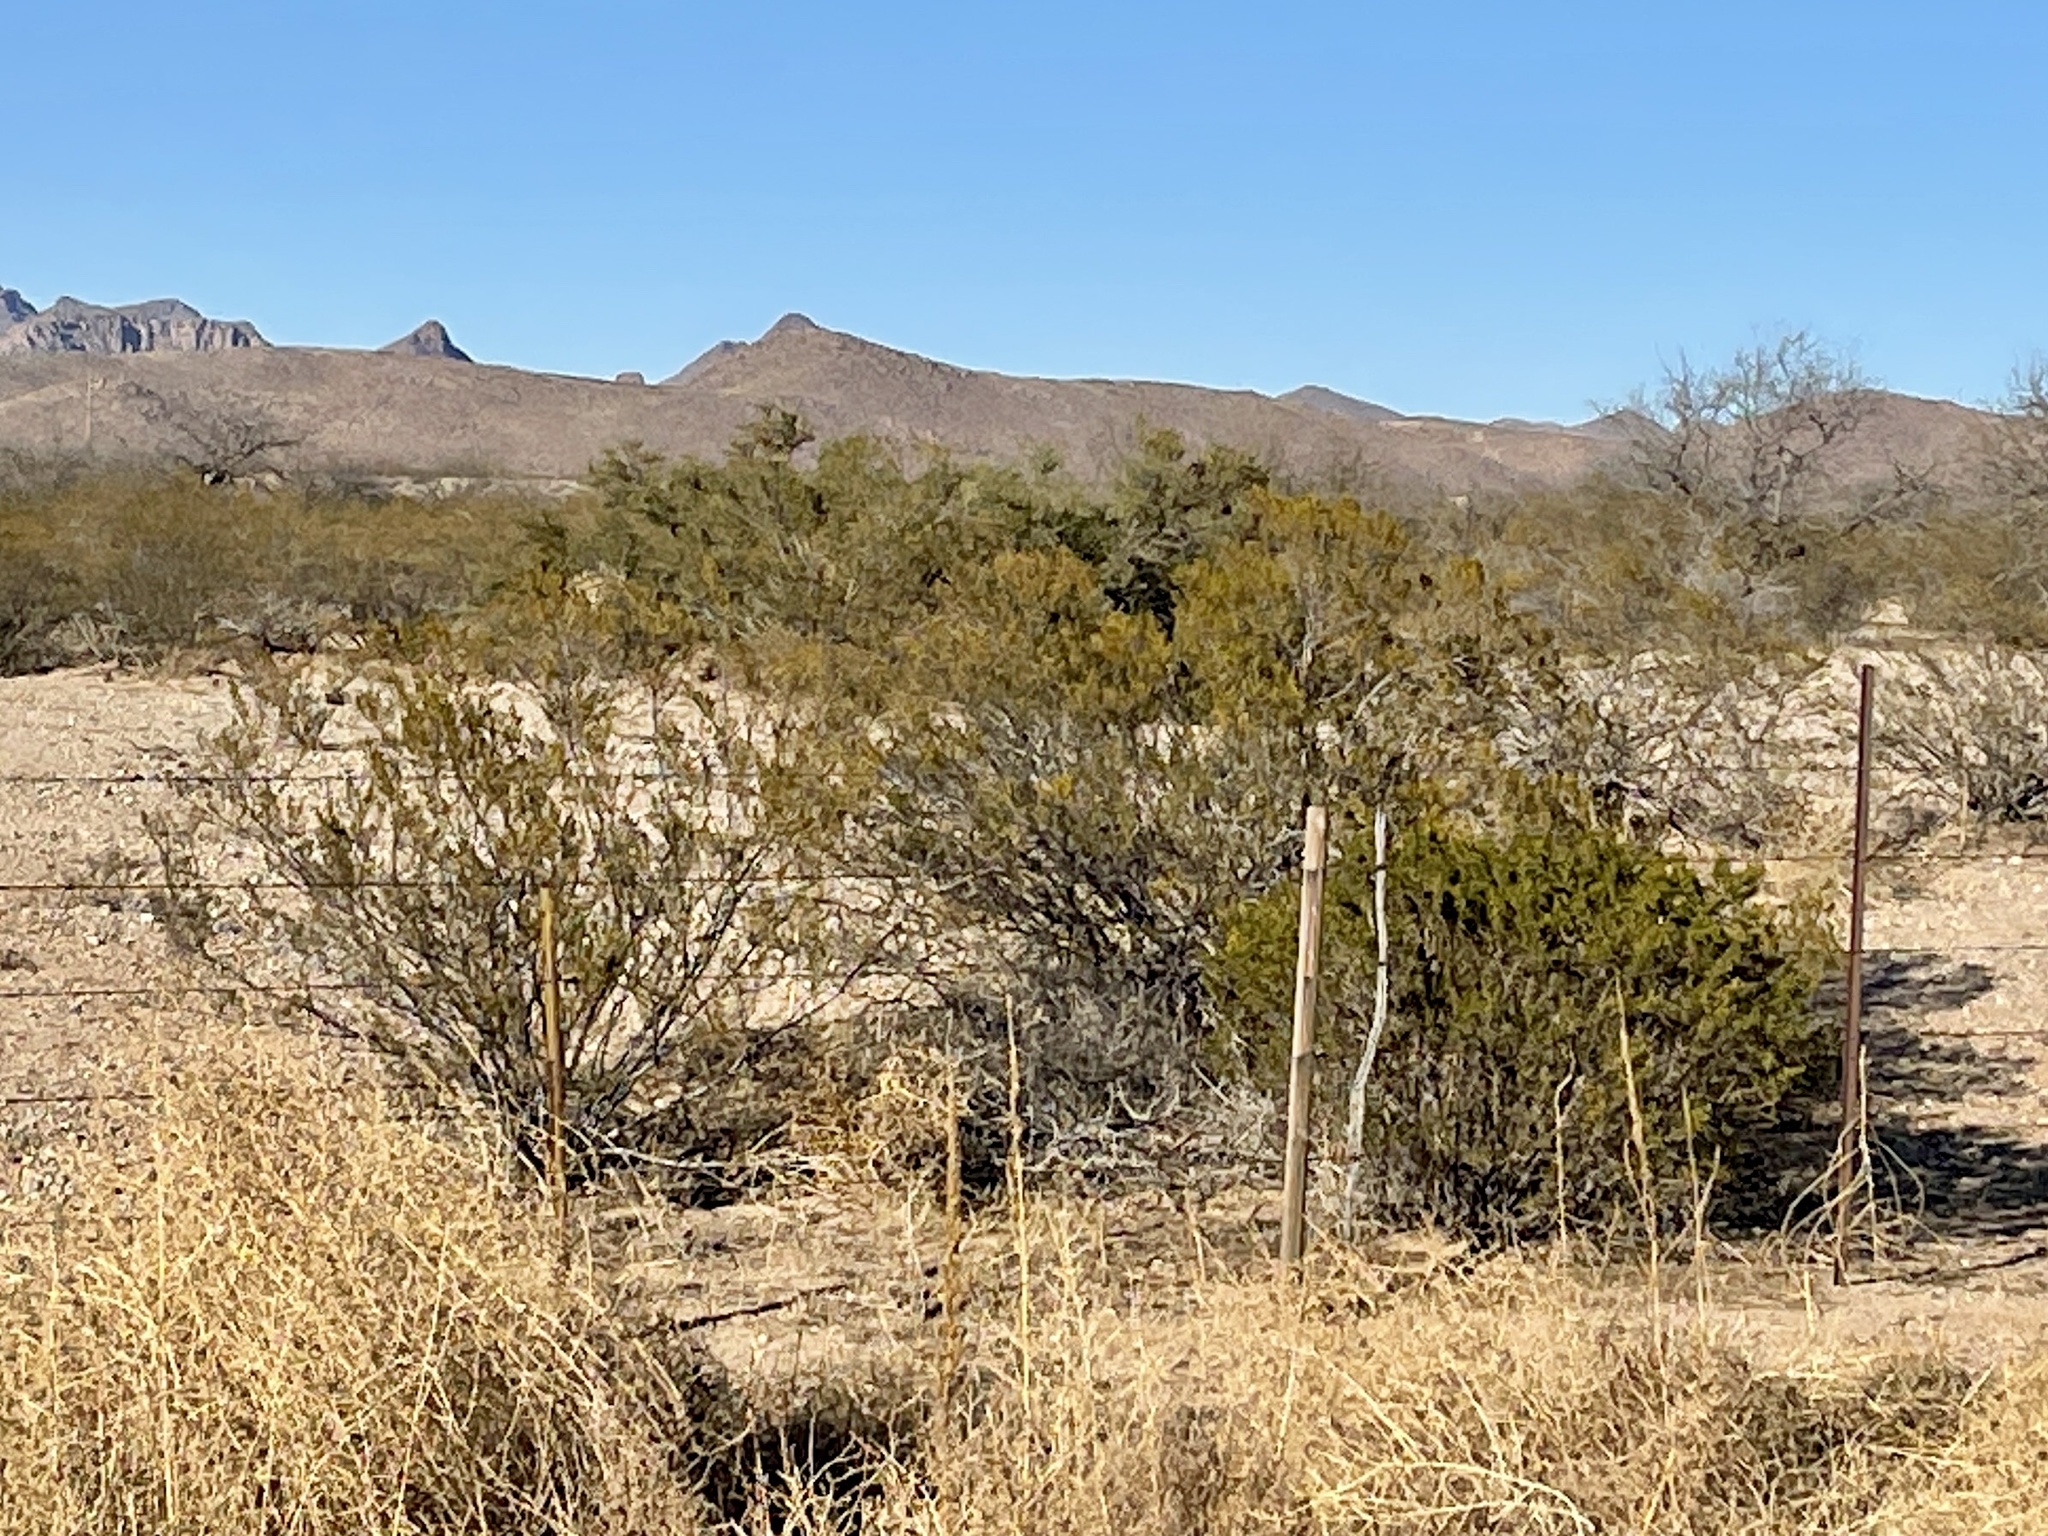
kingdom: Plantae
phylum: Tracheophyta
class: Magnoliopsida
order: Zygophyllales
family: Zygophyllaceae
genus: Larrea
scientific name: Larrea tridentata
